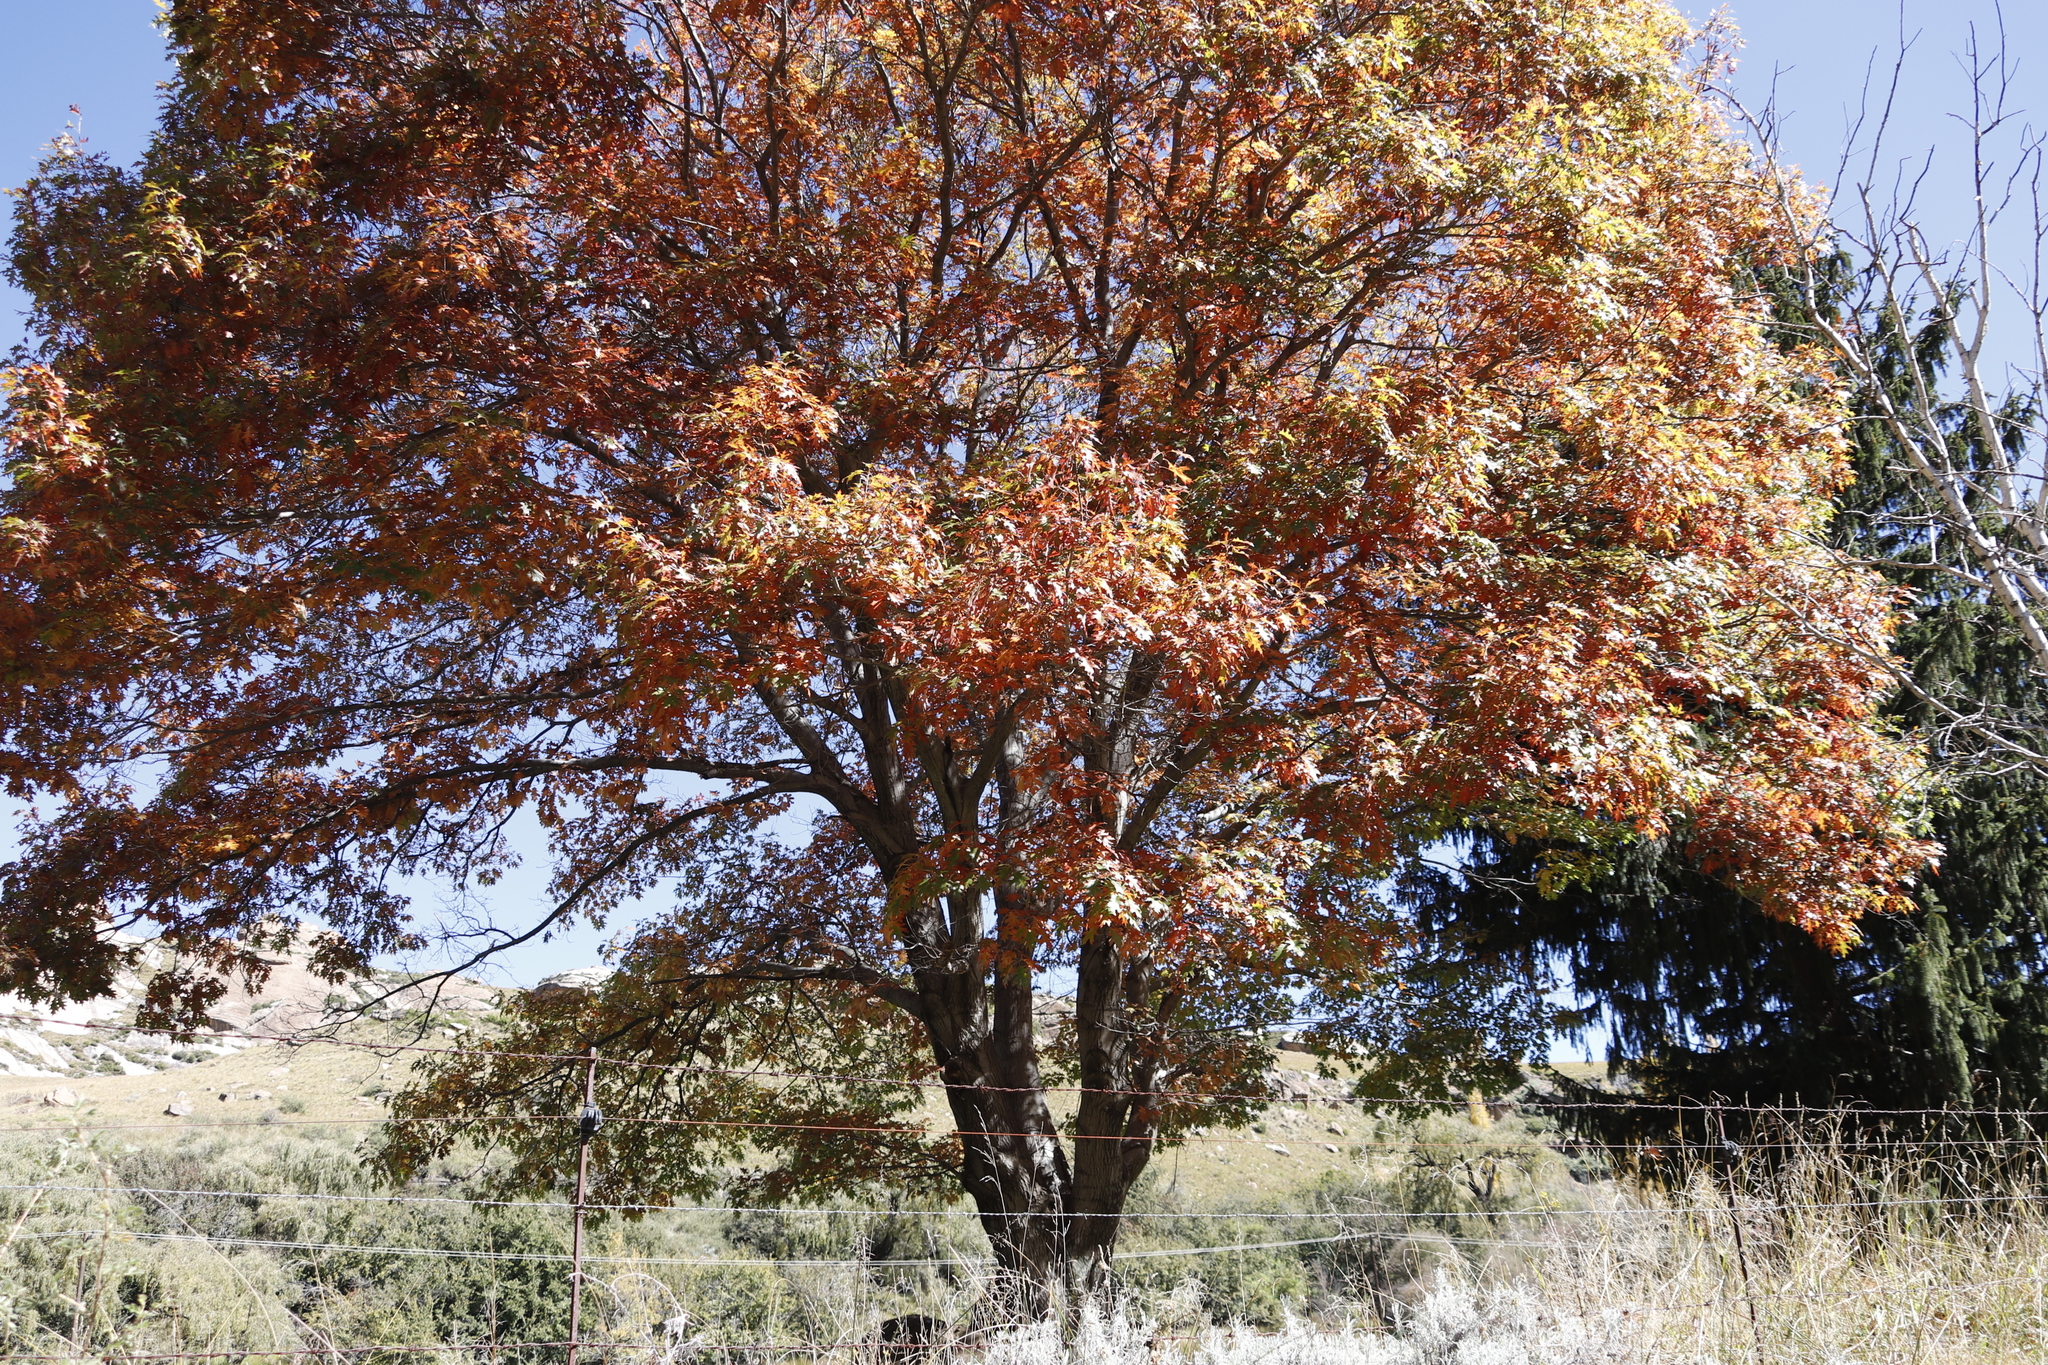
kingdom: Plantae
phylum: Tracheophyta
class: Magnoliopsida
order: Fagales
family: Fagaceae
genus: Quercus
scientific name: Quercus palustris
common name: Pin oak
